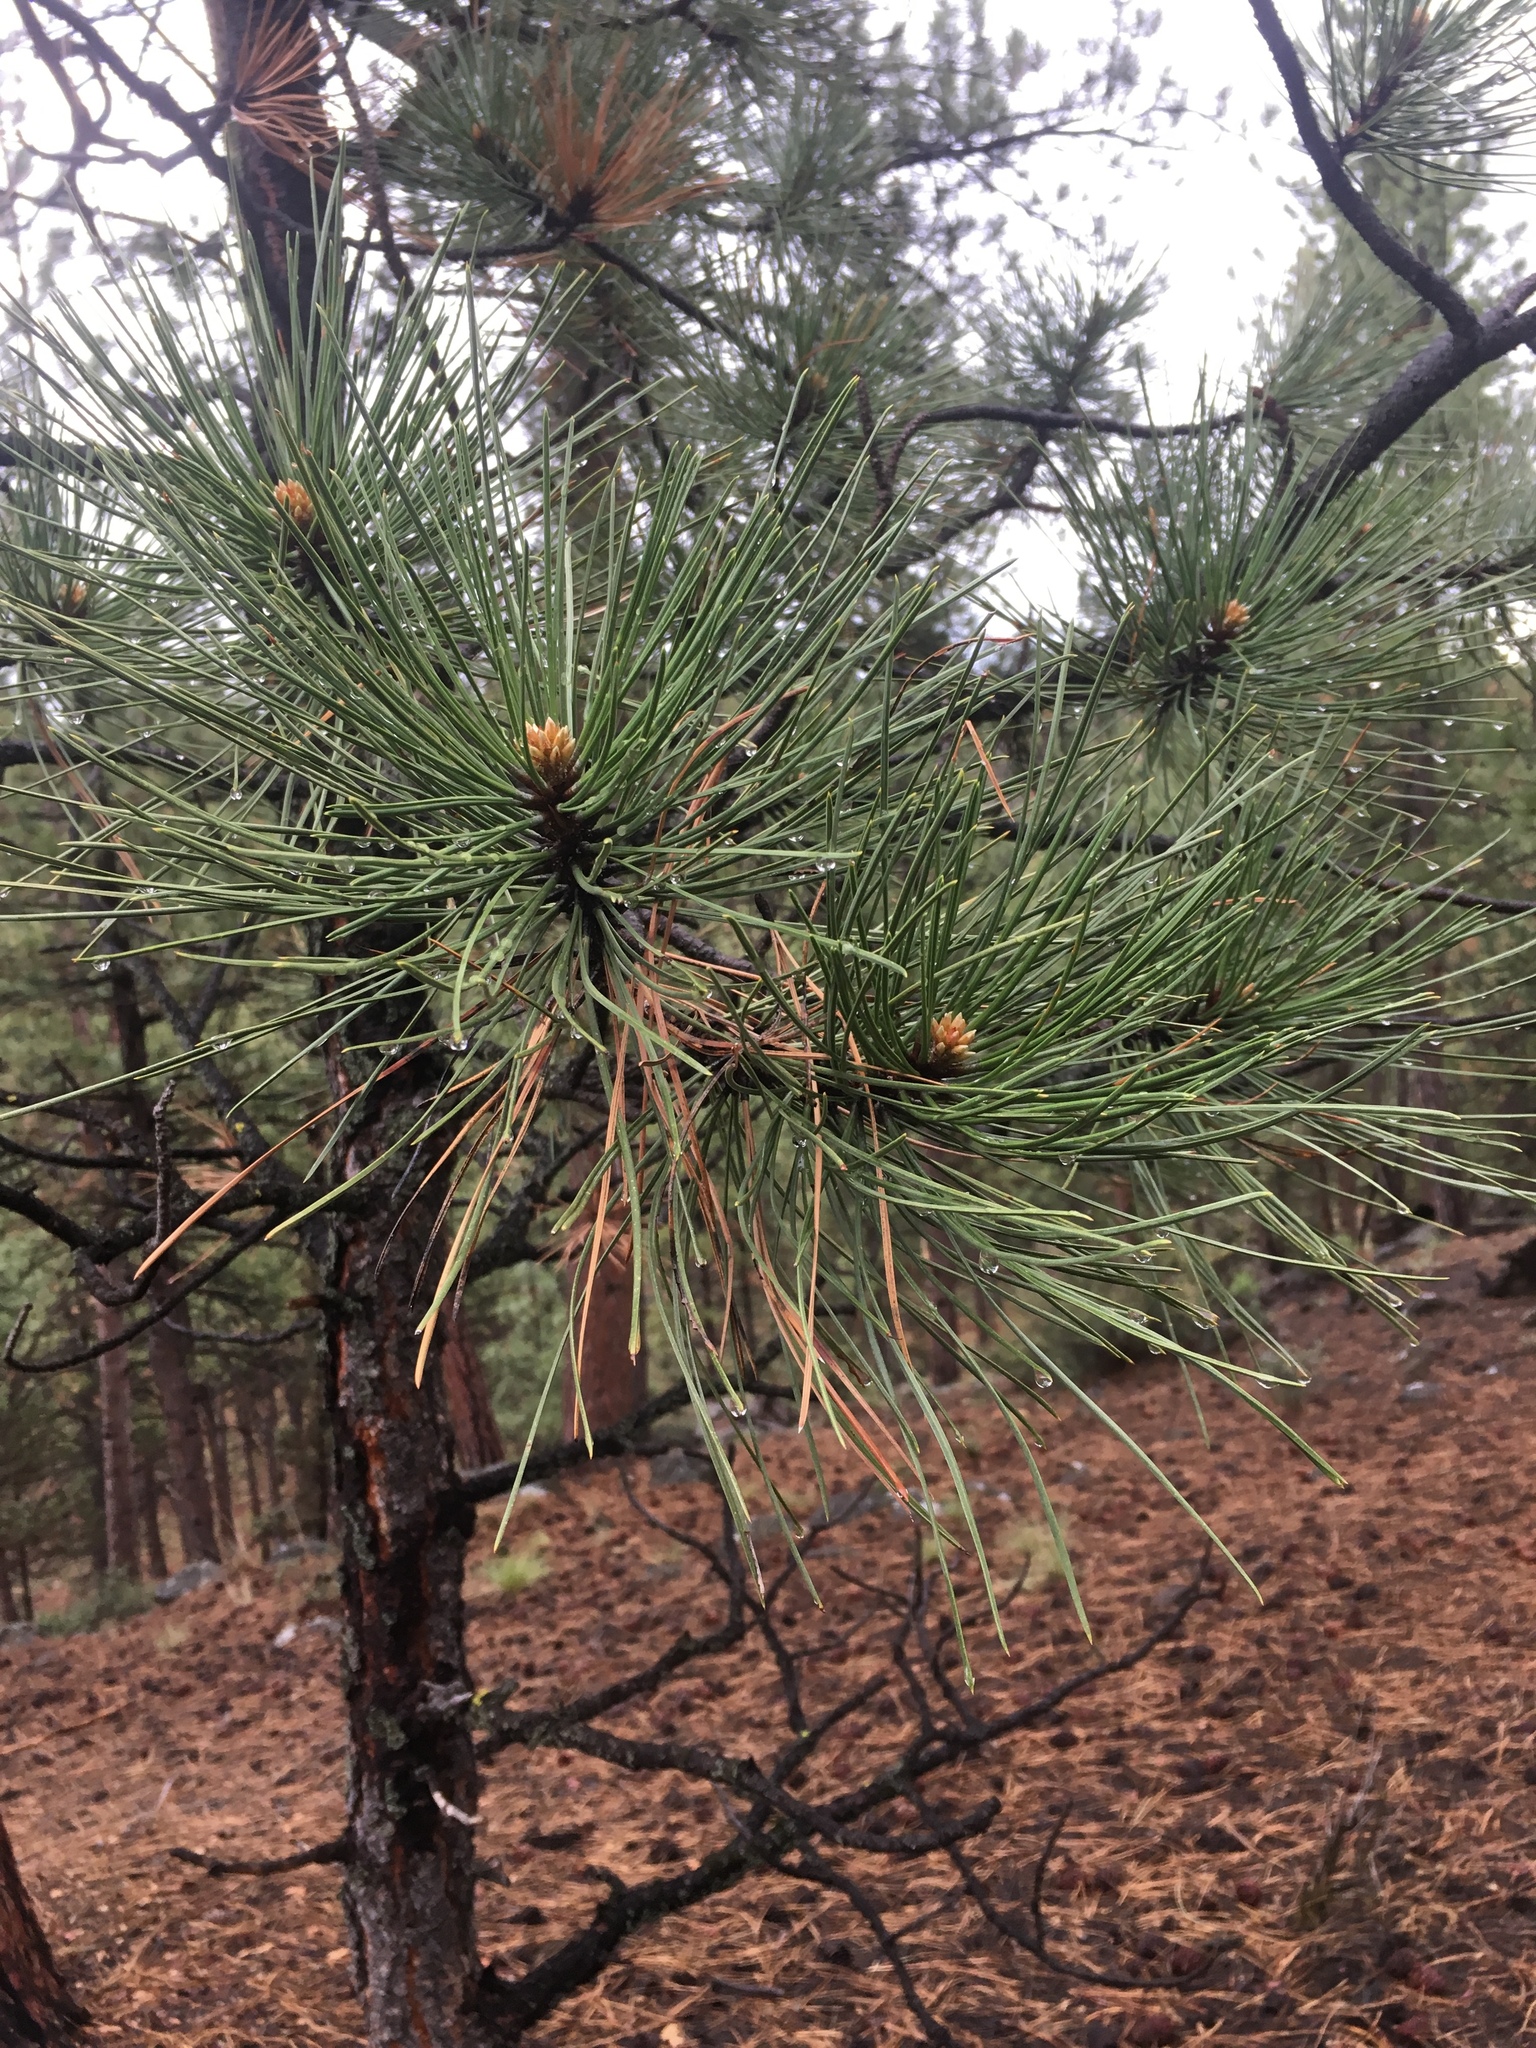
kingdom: Plantae
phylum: Tracheophyta
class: Pinopsida
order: Pinales
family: Pinaceae
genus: Pinus
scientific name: Pinus ponderosa
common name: Western yellow-pine
